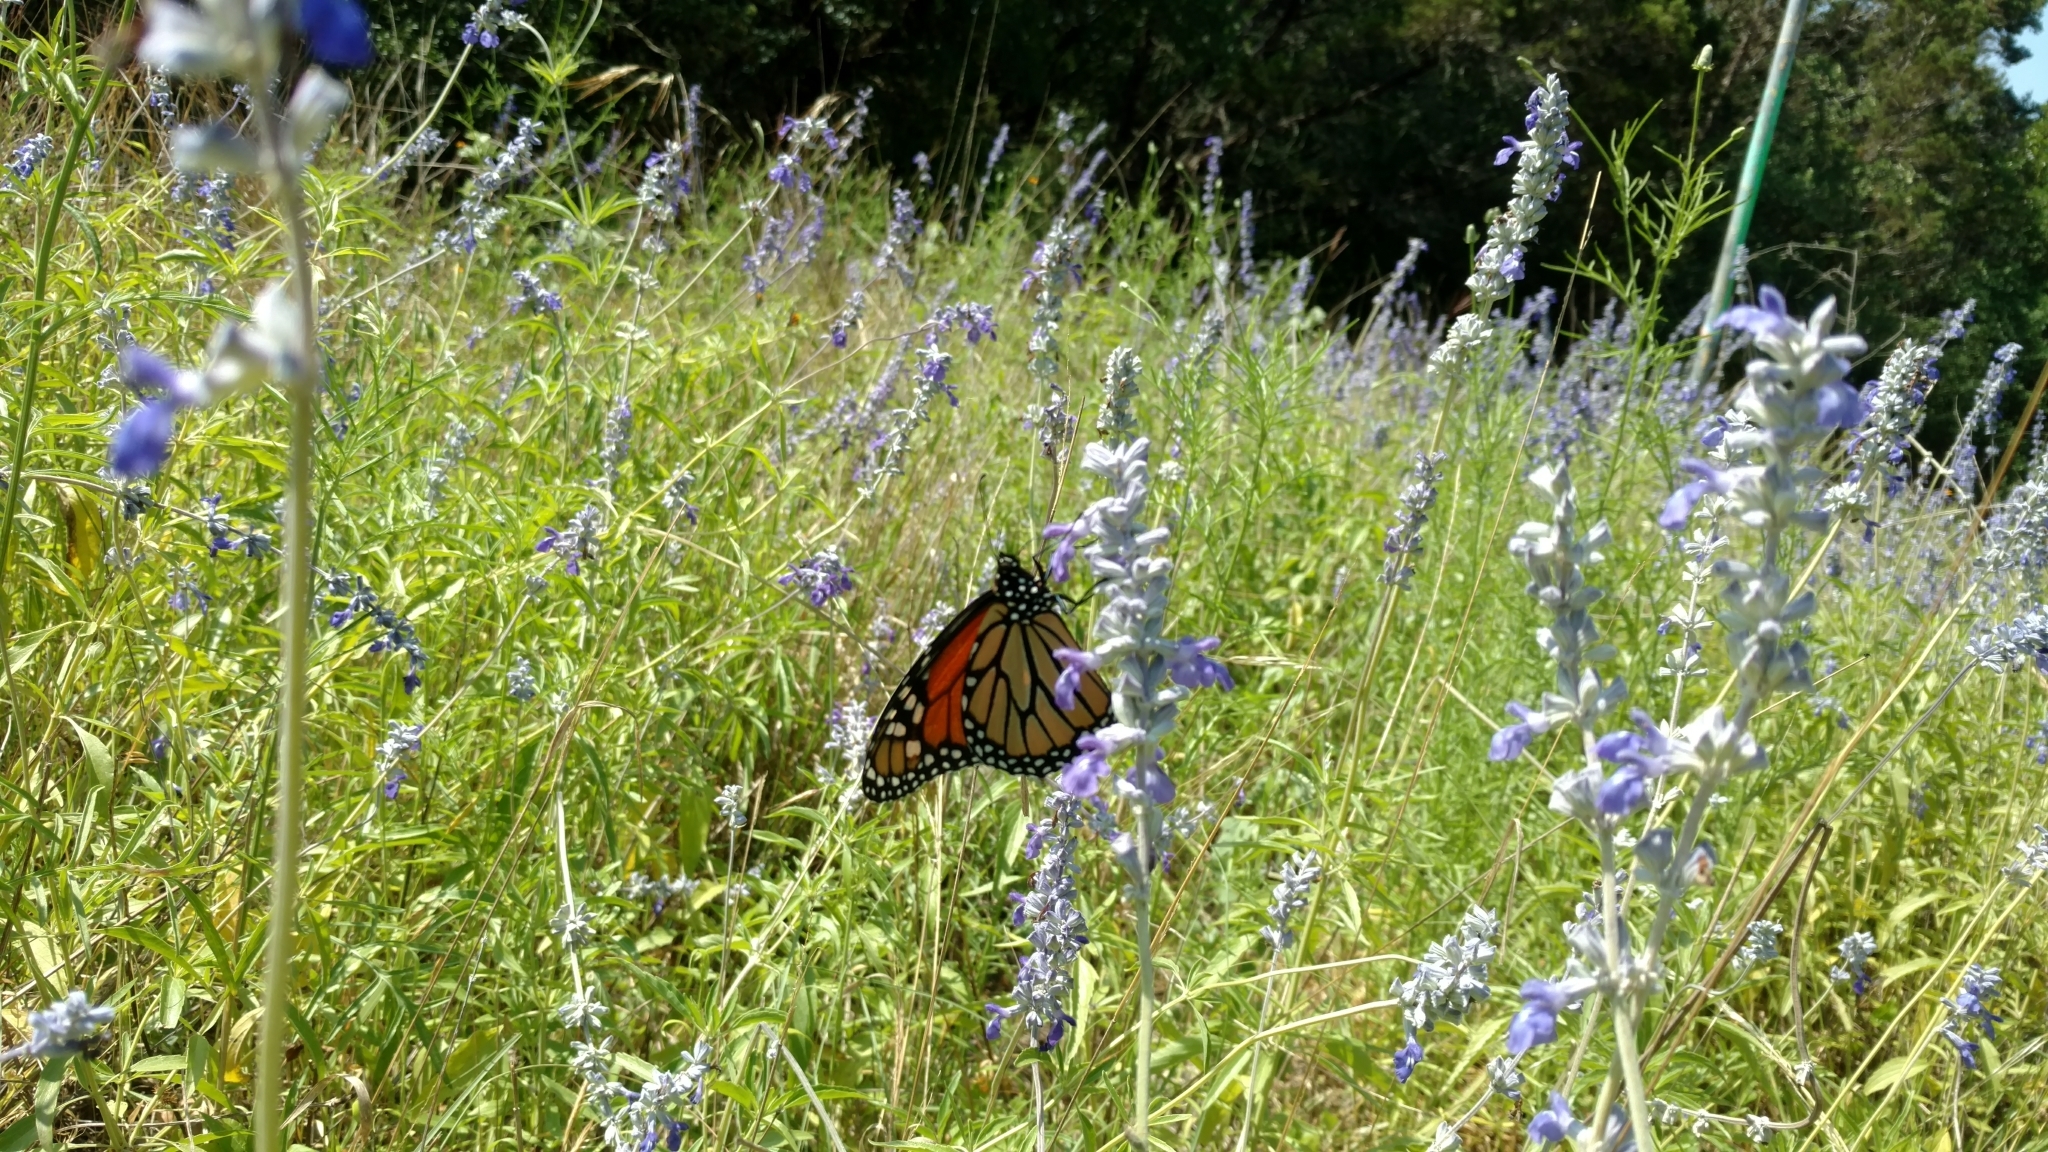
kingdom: Animalia
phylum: Arthropoda
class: Insecta
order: Lepidoptera
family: Nymphalidae
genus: Danaus
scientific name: Danaus plexippus
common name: Monarch
